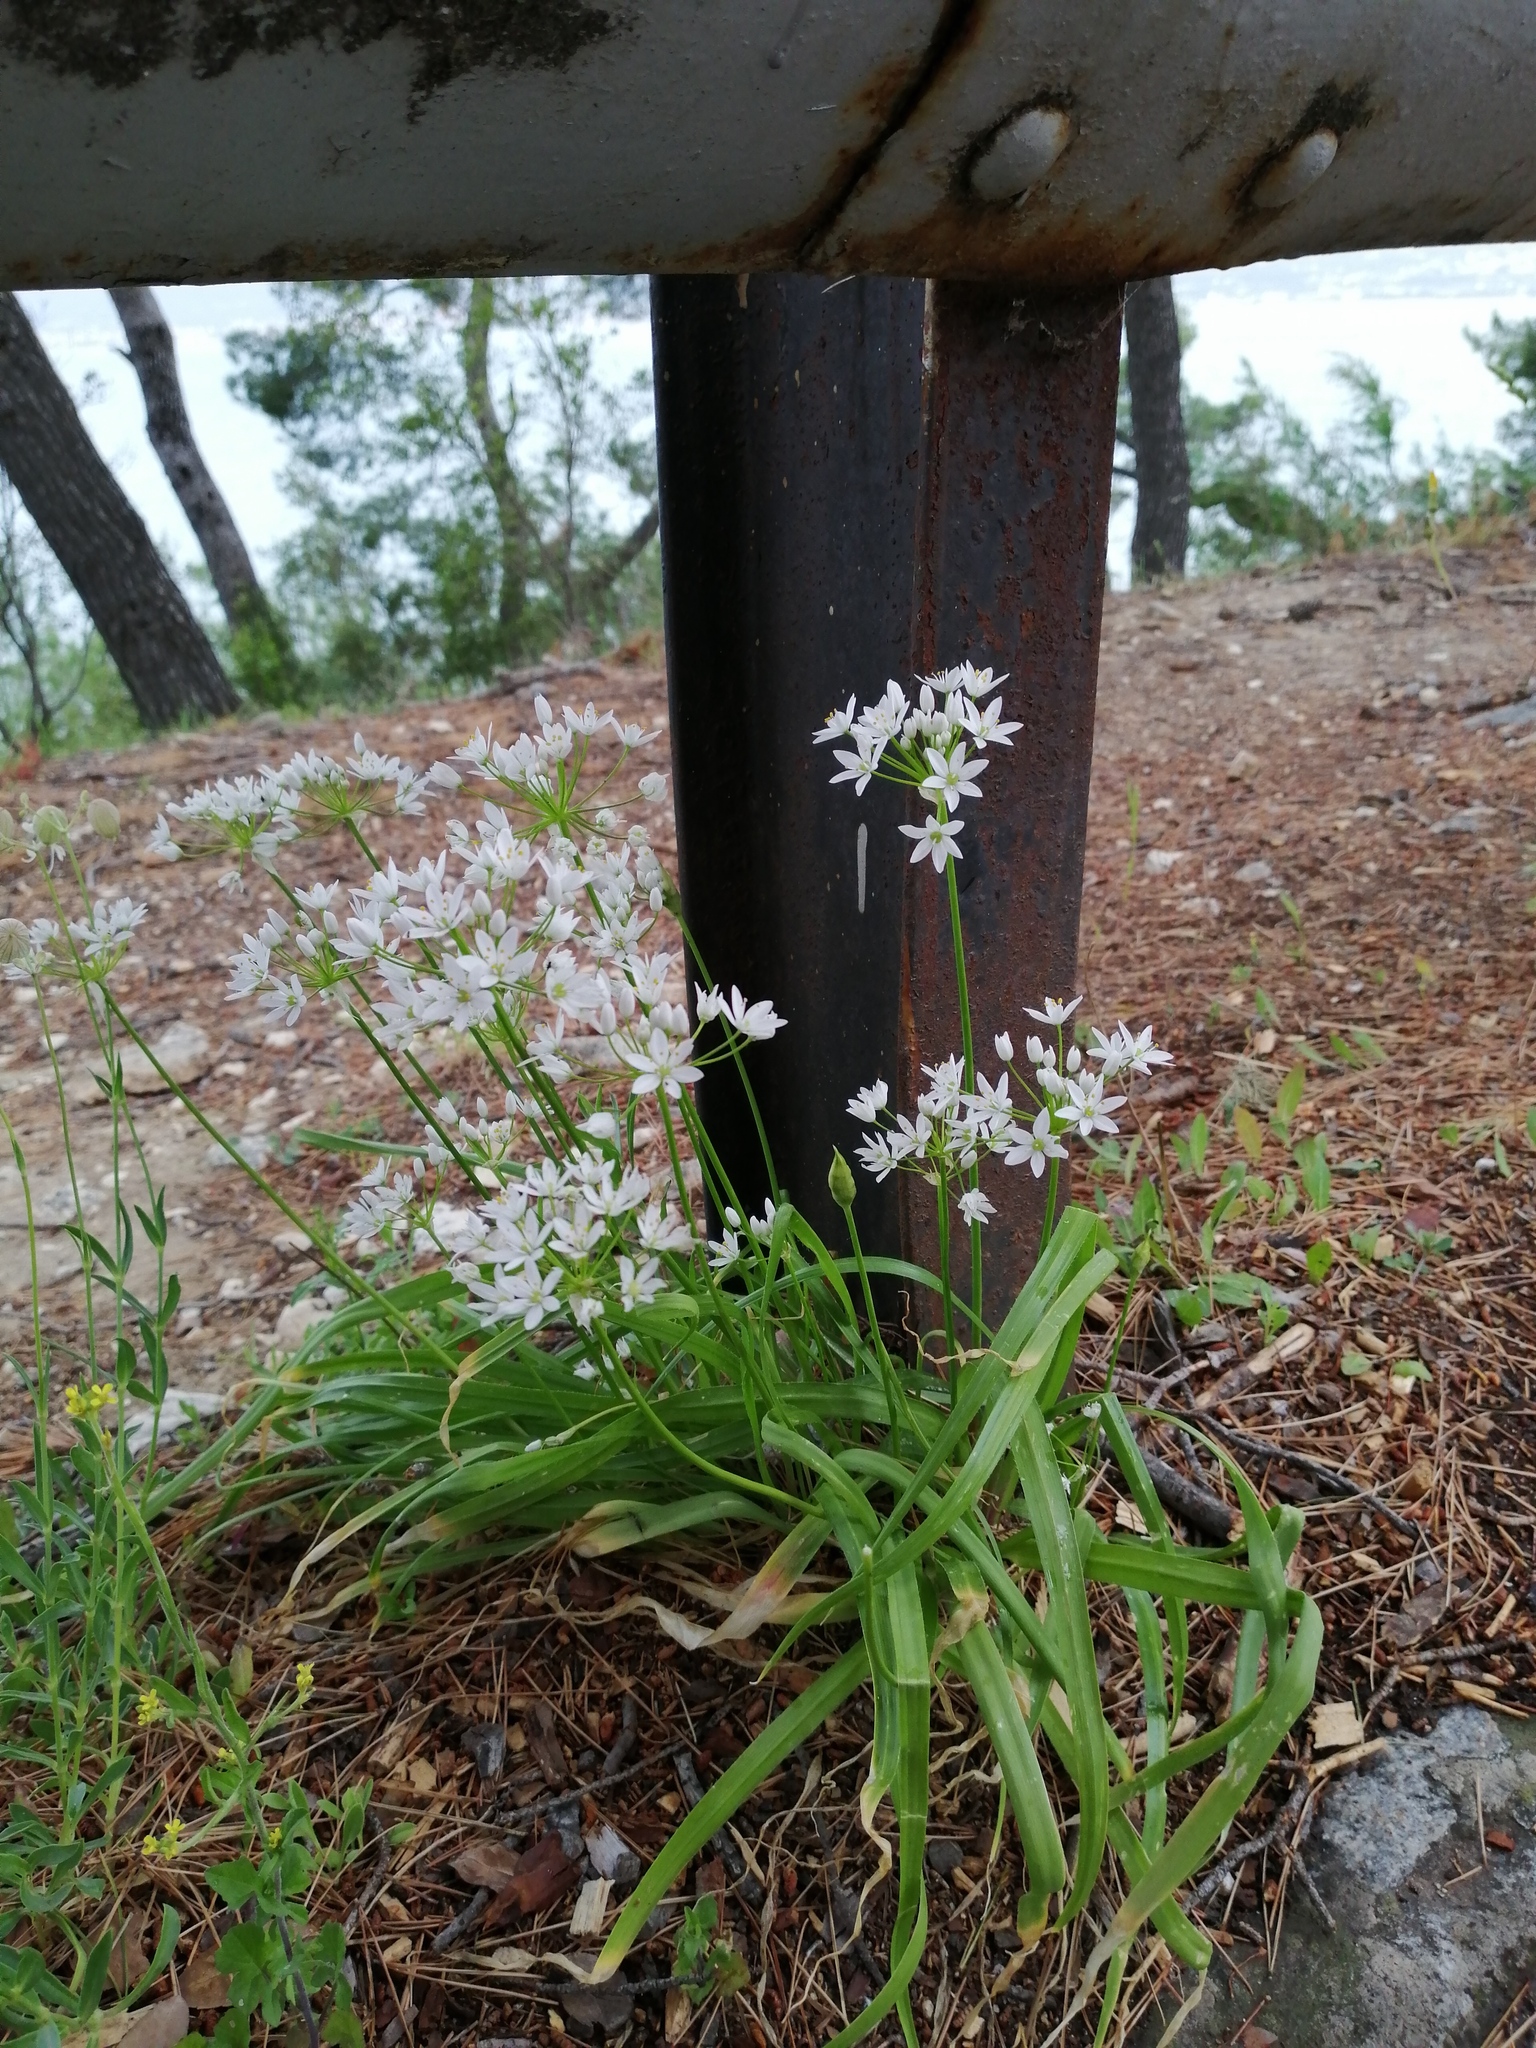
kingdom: Plantae
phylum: Tracheophyta
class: Liliopsida
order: Asparagales
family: Amaryllidaceae
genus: Allium
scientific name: Allium neapolitanum
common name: Neapolitan garlic
